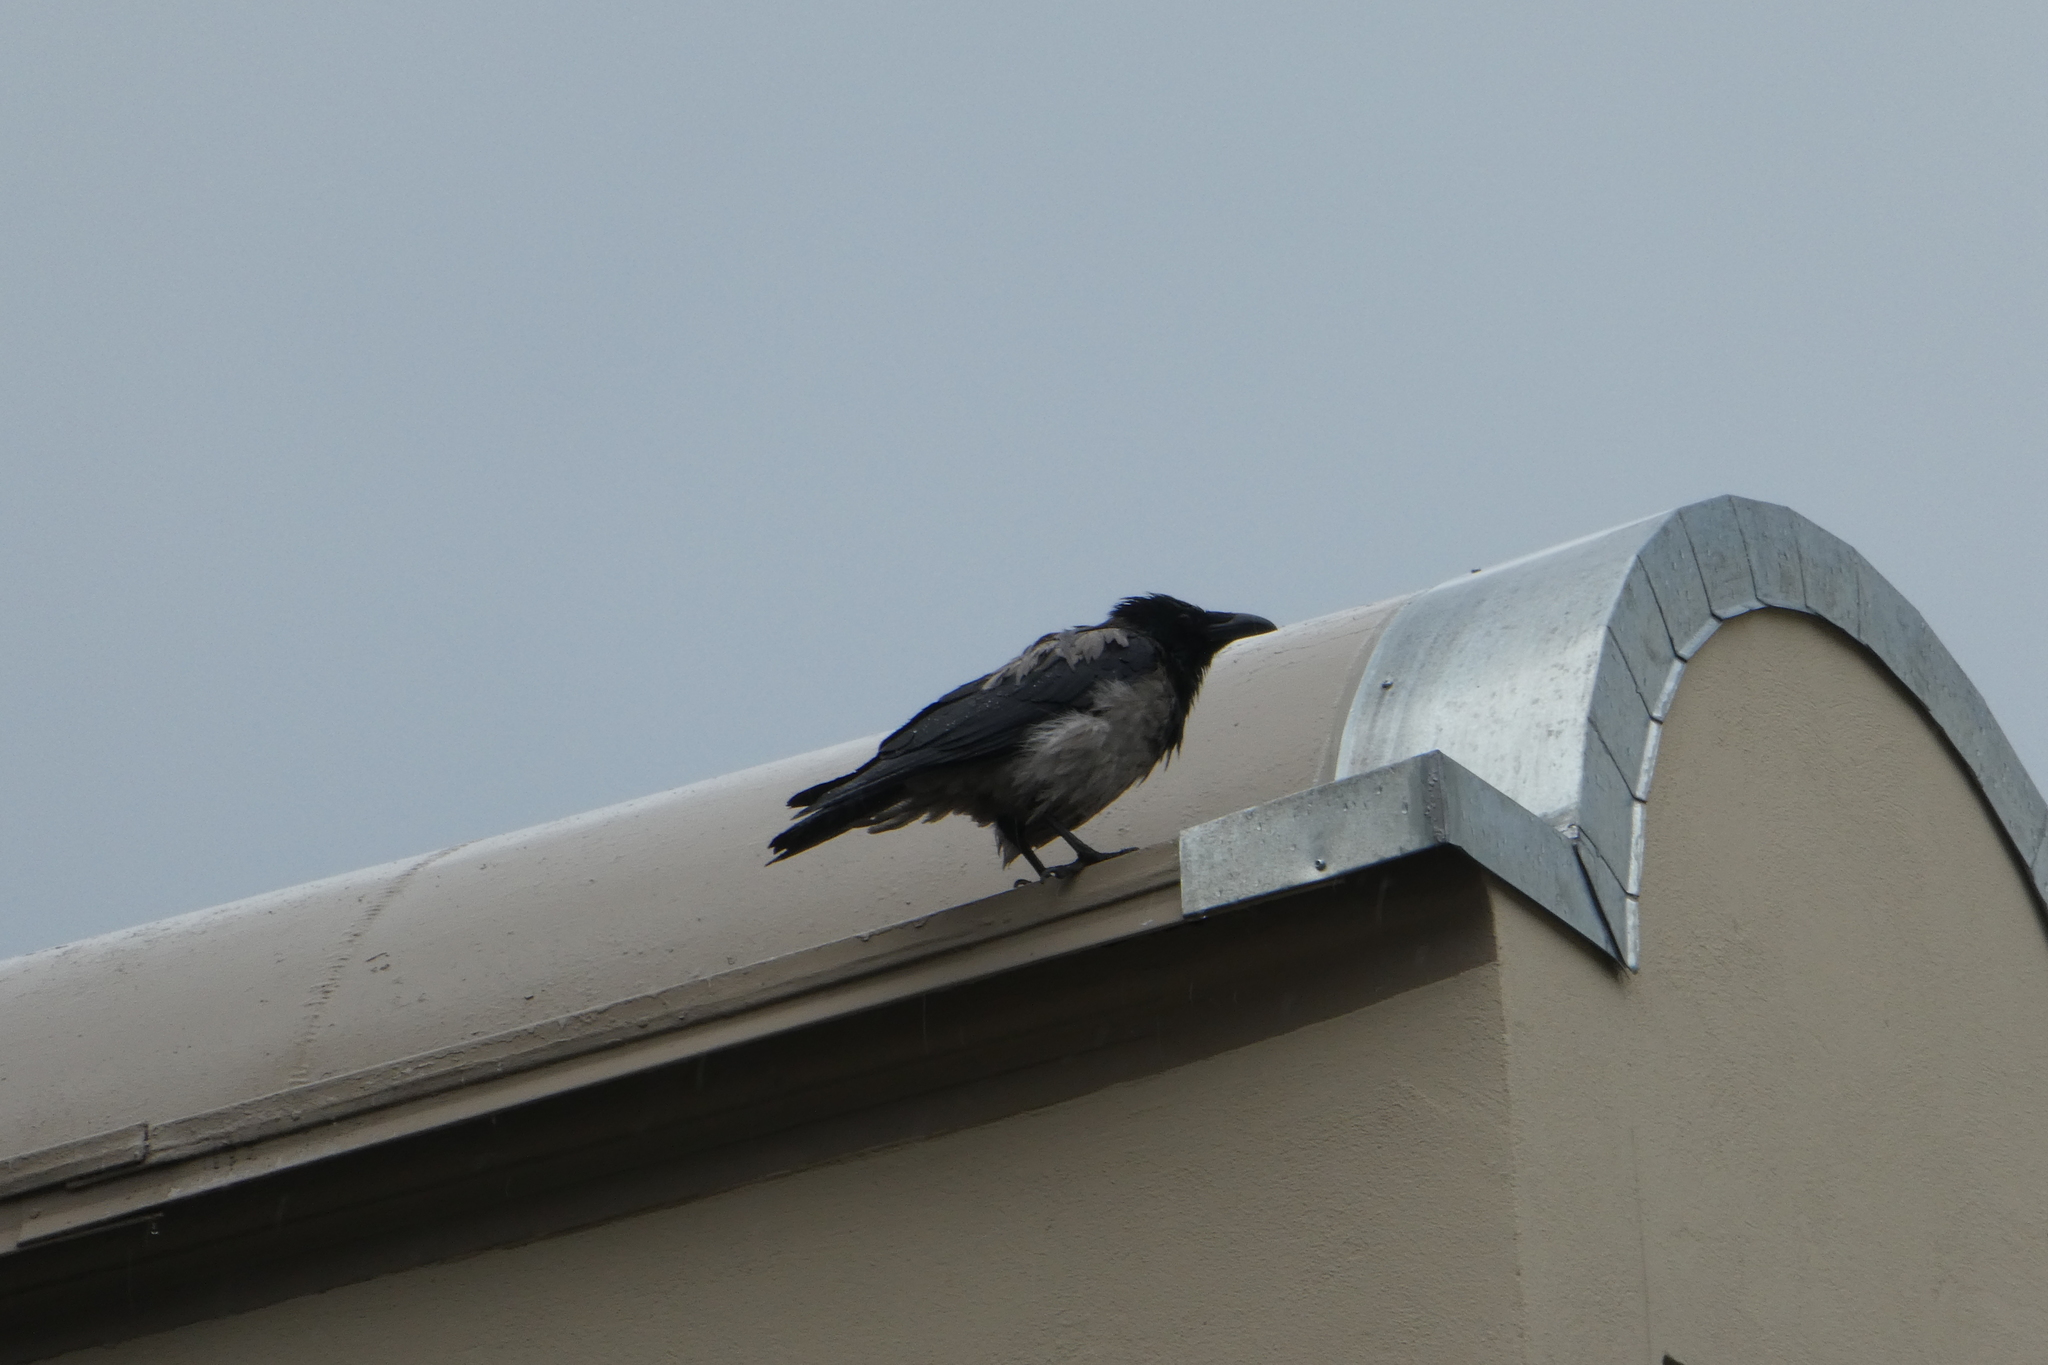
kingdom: Animalia
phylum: Chordata
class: Aves
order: Passeriformes
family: Corvidae
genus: Corvus
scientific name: Corvus cornix
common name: Hooded crow
